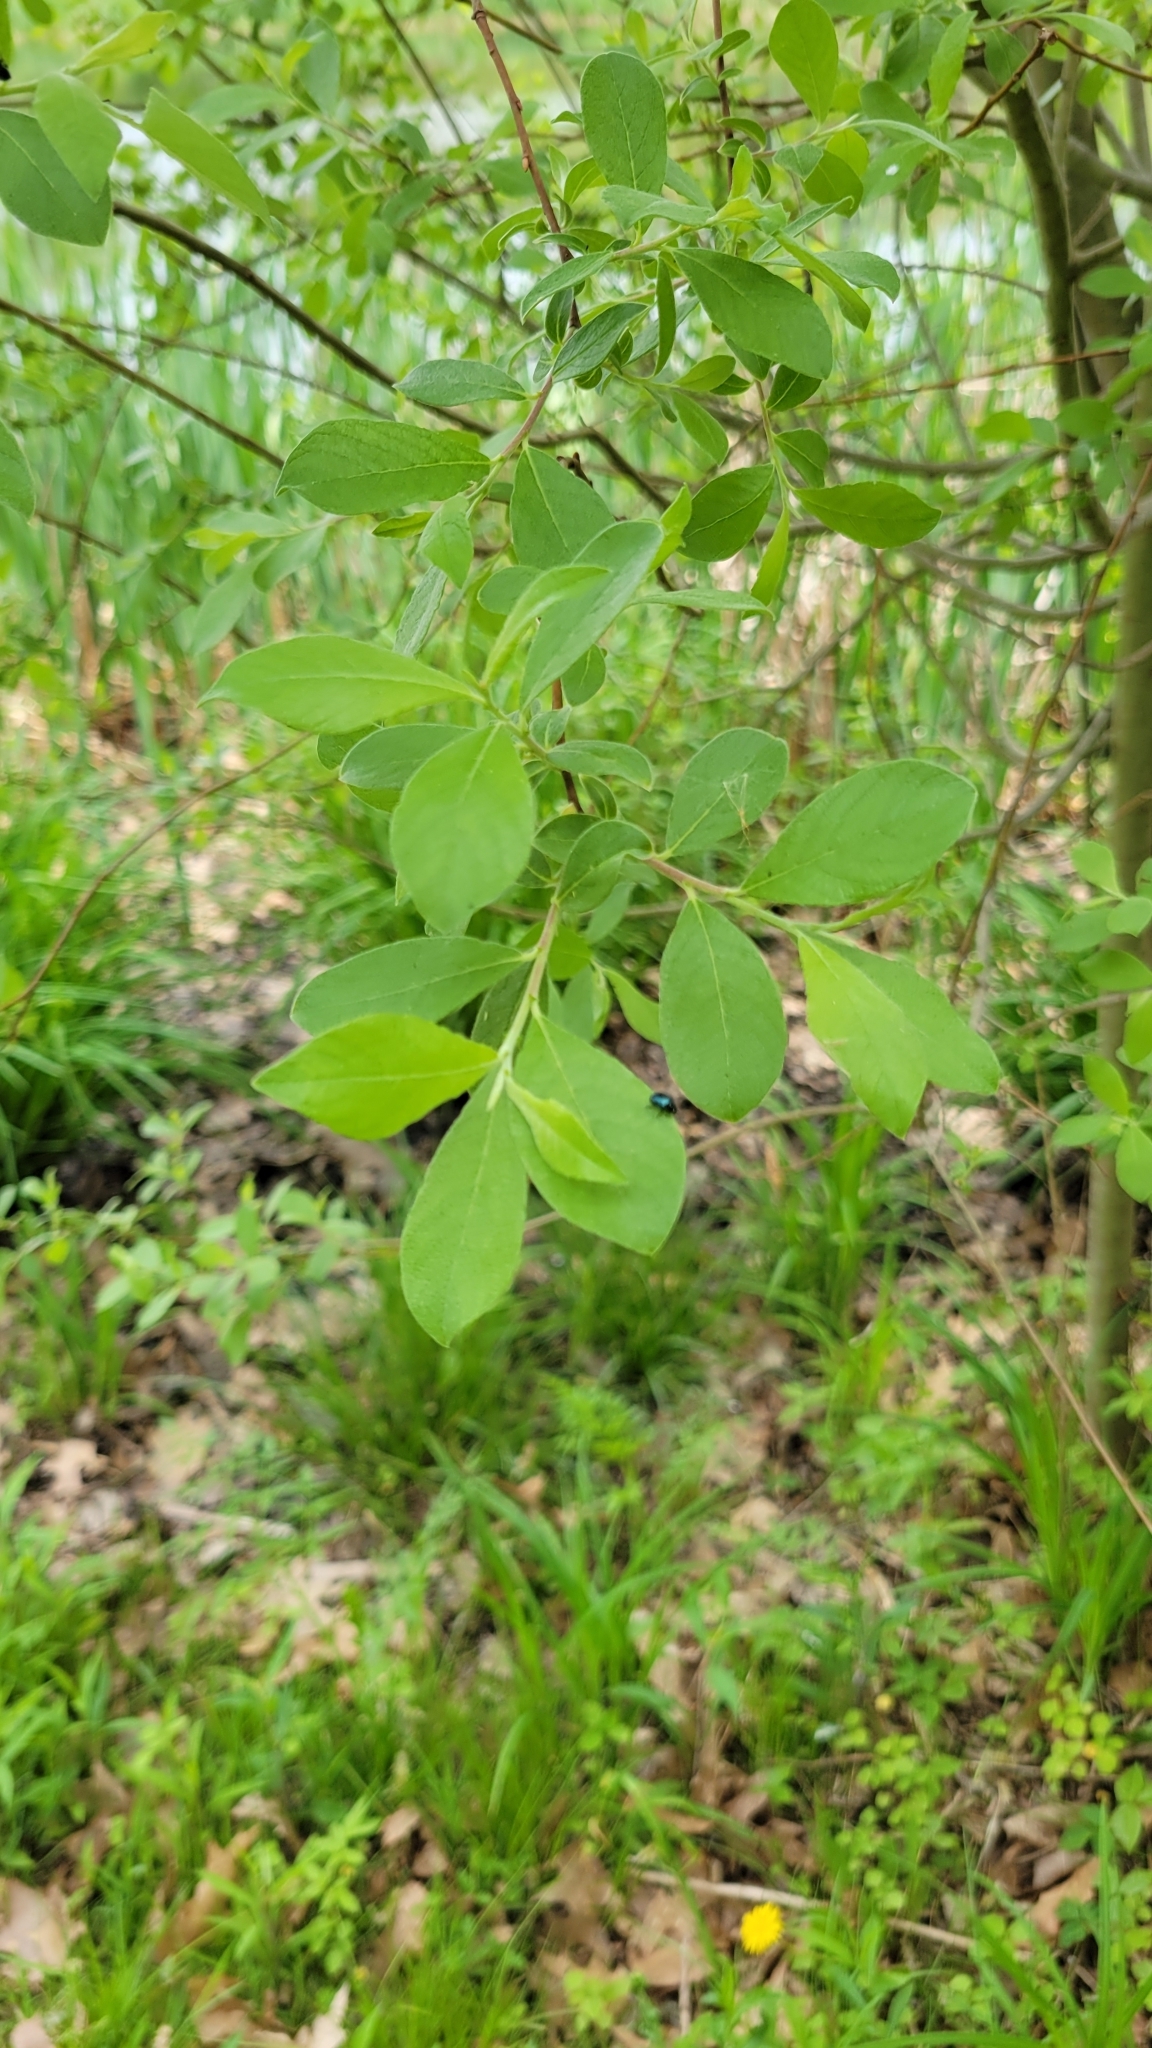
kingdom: Plantae
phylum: Tracheophyta
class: Magnoliopsida
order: Malpighiales
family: Salicaceae
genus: Salix
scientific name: Salix cinerea
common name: Common sallow
